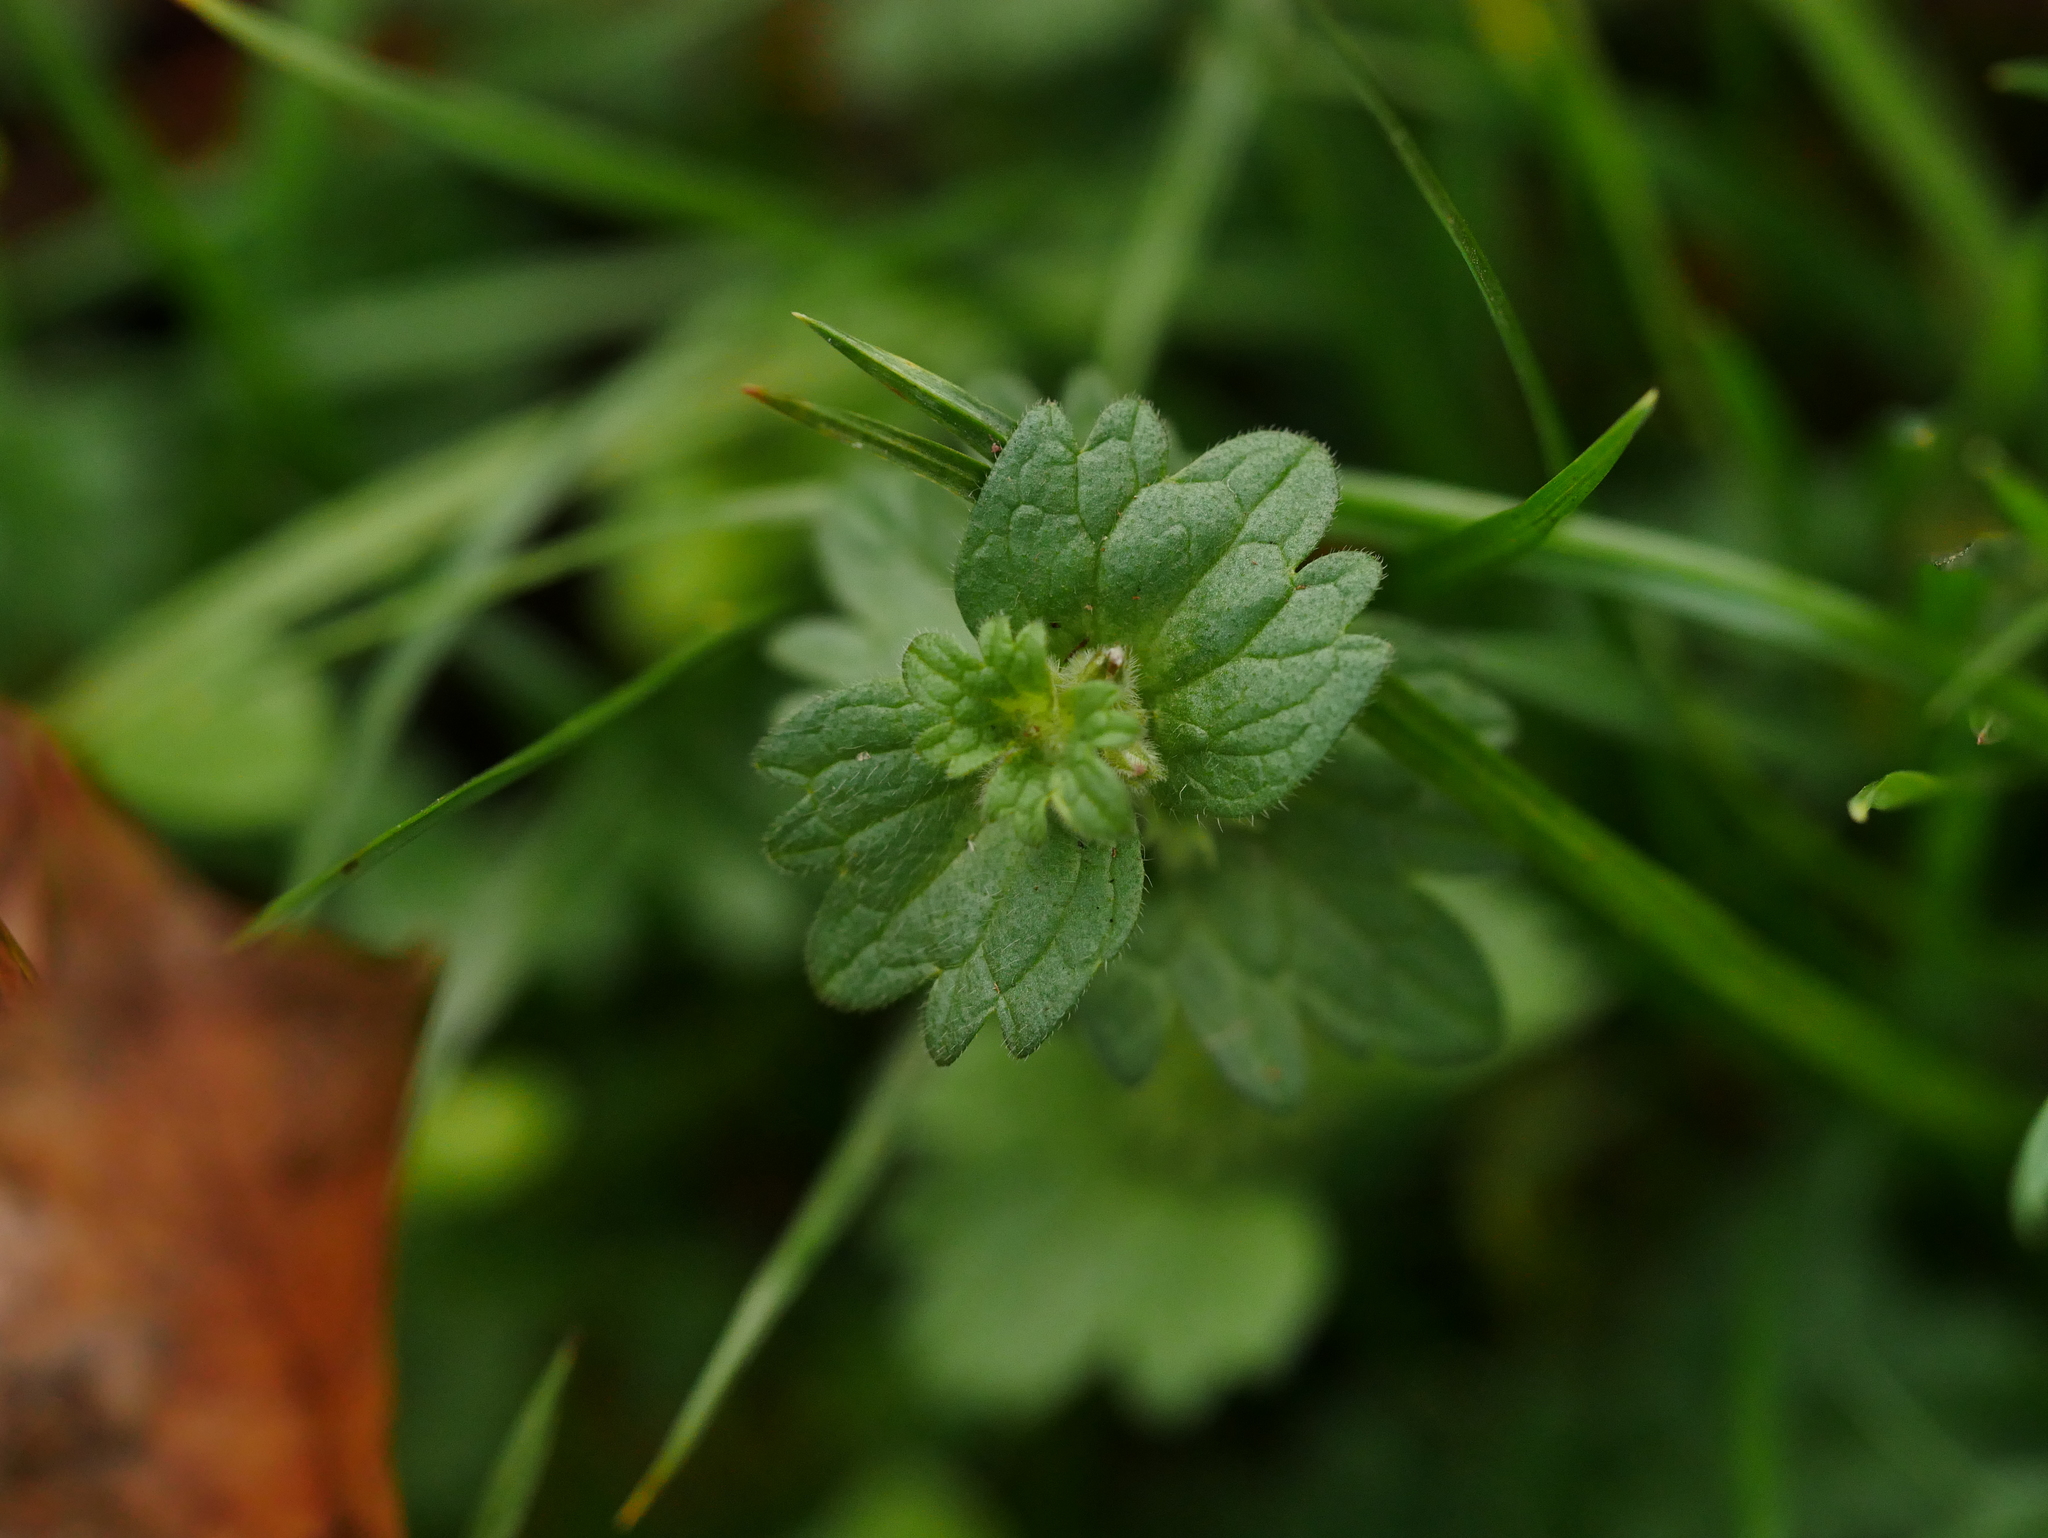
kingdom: Plantae
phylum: Tracheophyta
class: Magnoliopsida
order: Lamiales
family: Lamiaceae
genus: Lamium
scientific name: Lamium amplexicaule
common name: Henbit dead-nettle
